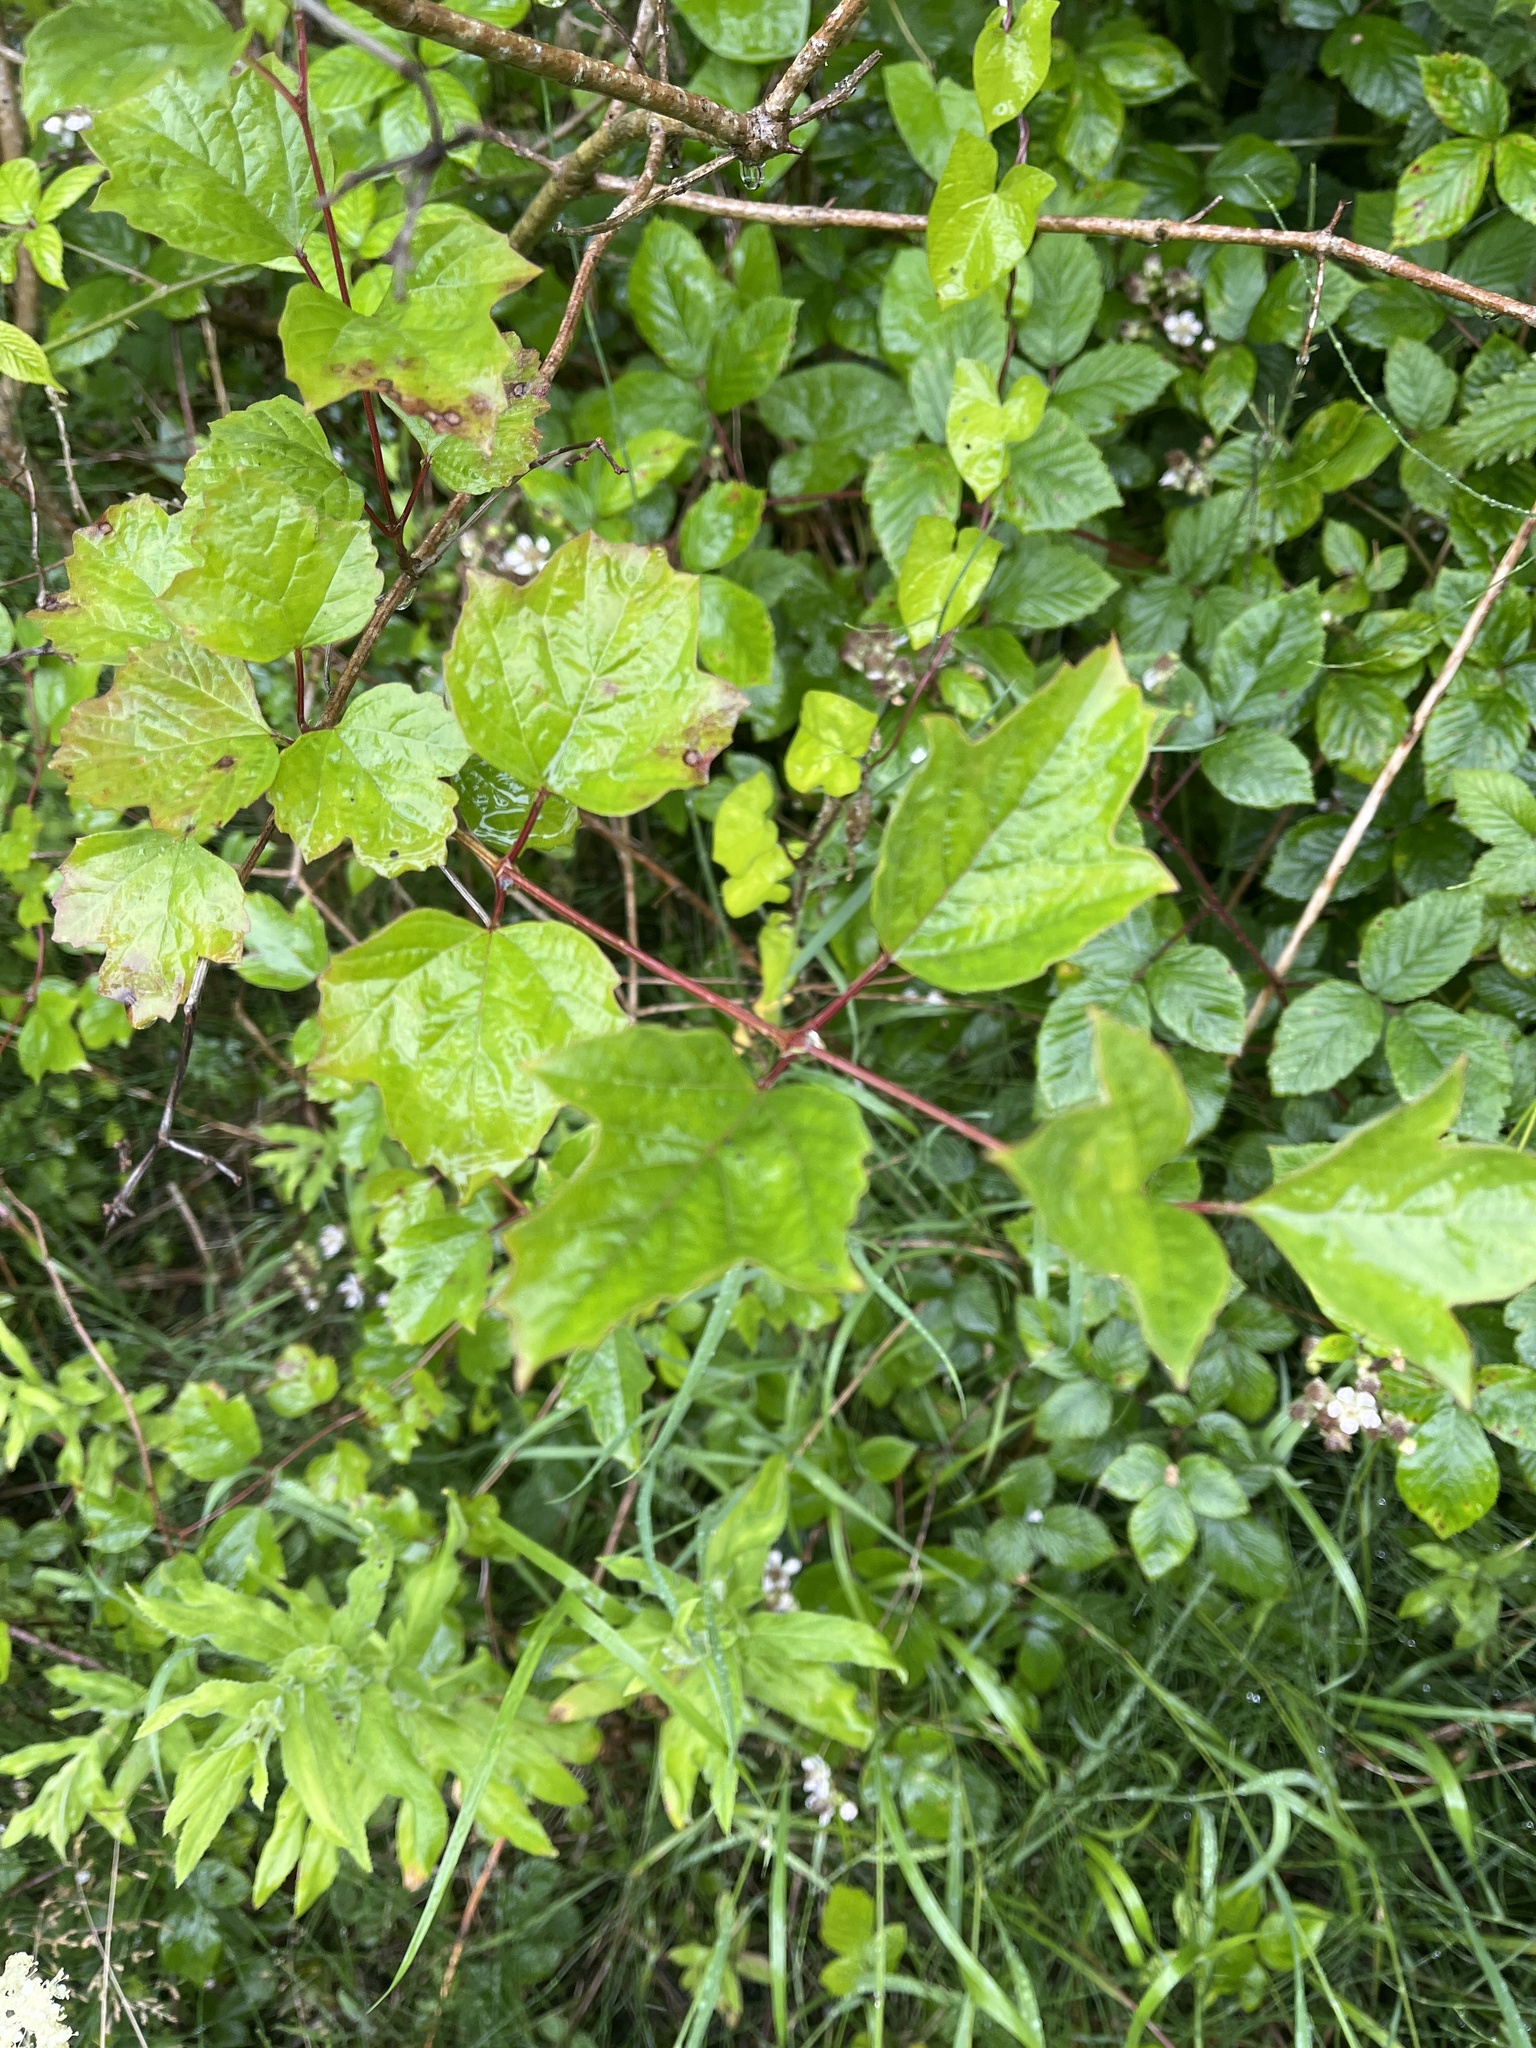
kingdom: Plantae
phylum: Tracheophyta
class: Magnoliopsida
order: Dipsacales
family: Viburnaceae
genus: Viburnum
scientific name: Viburnum opulus
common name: Guelder-rose
